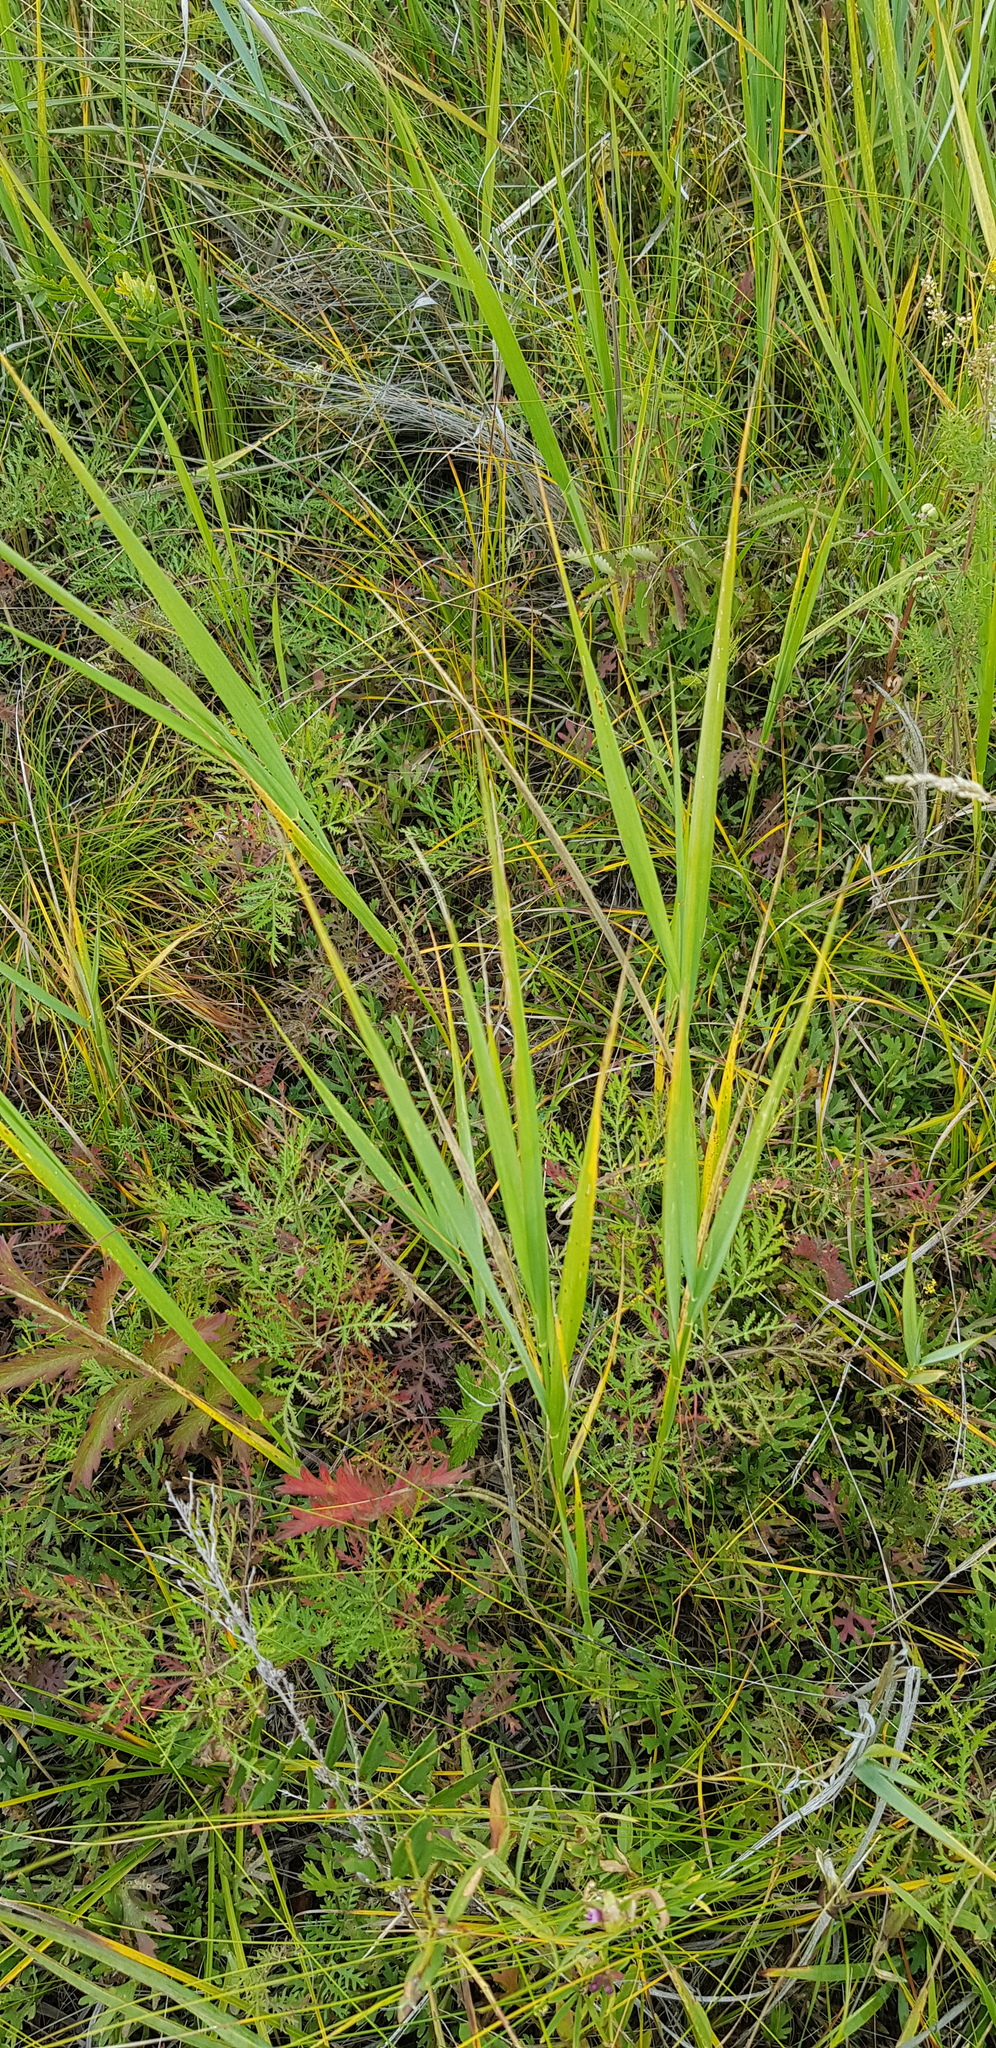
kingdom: Plantae
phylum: Tracheophyta
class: Liliopsida
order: Poales
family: Poaceae
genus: Phragmites
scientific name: Phragmites australis
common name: Common reed
